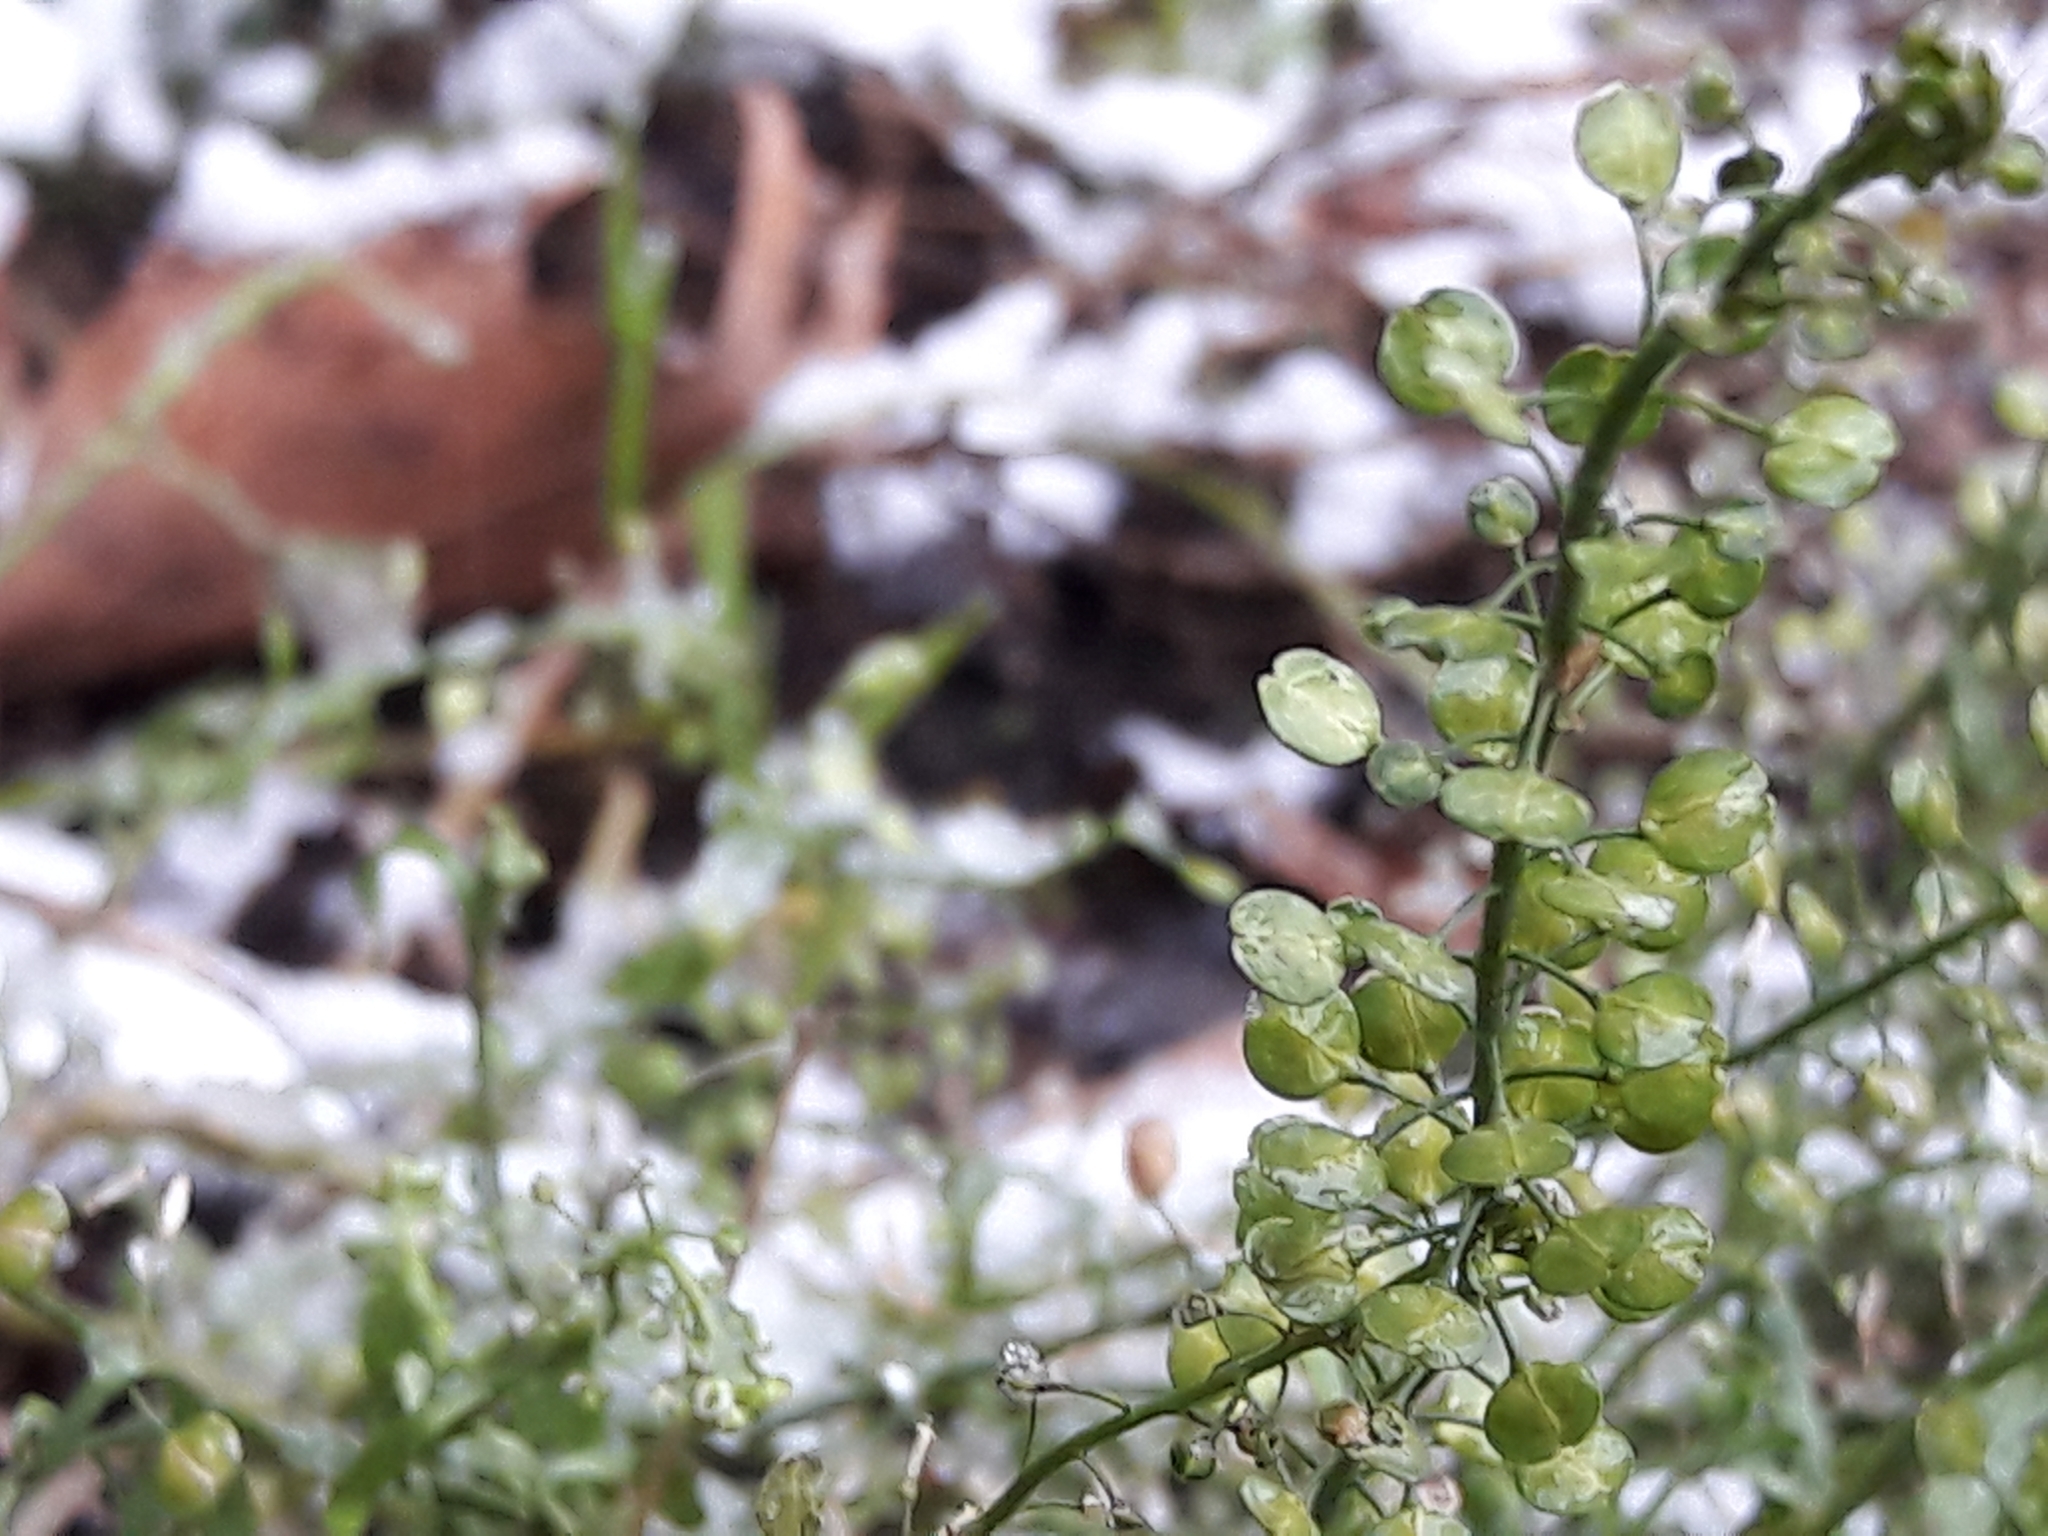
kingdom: Plantae
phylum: Tracheophyta
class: Magnoliopsida
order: Brassicales
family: Brassicaceae
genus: Lepidium
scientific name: Lepidium virginicum
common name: Least pepperwort
